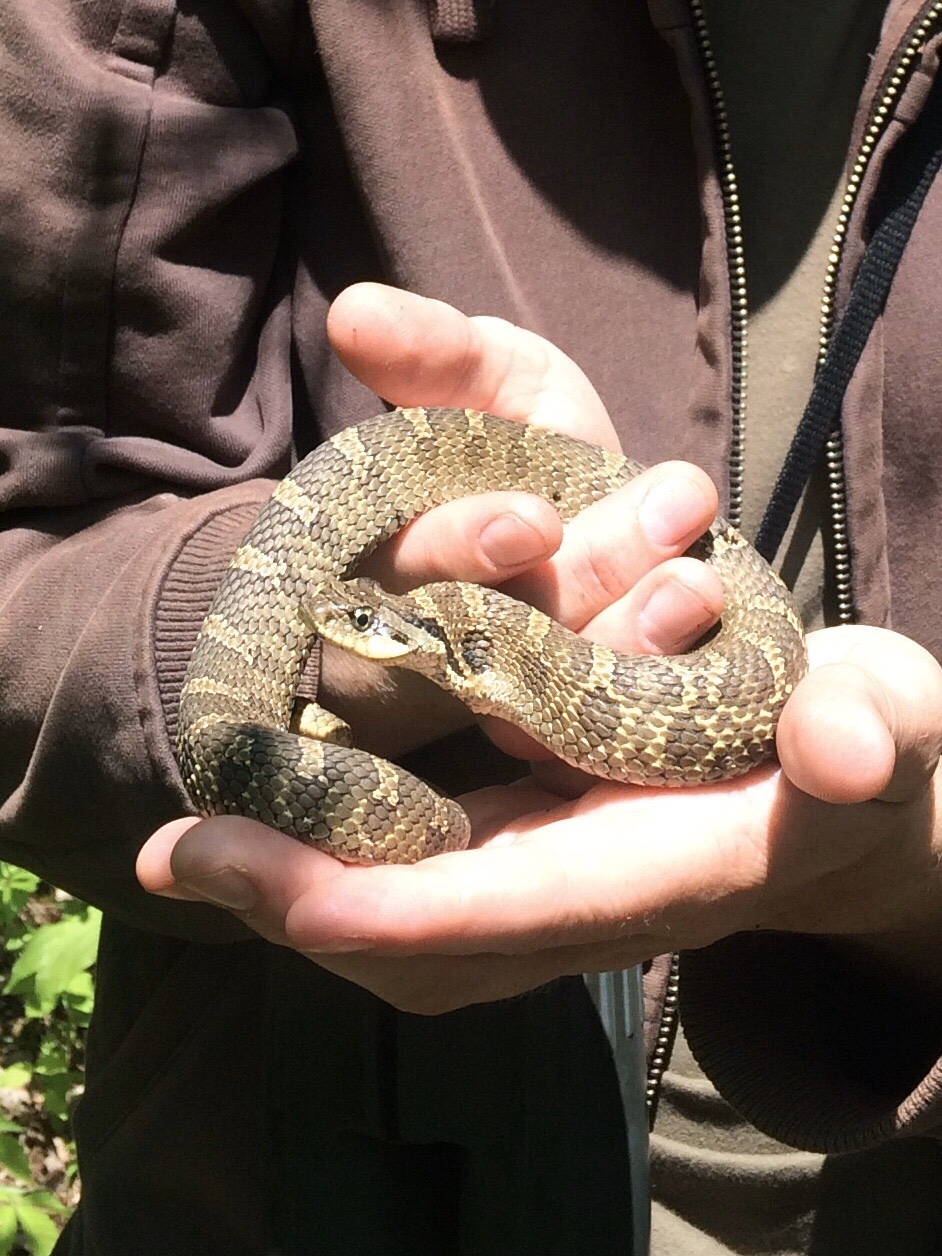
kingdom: Animalia
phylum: Chordata
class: Squamata
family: Colubridae
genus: Heterodon
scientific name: Heterodon platirhinos
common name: Eastern hognose snake
